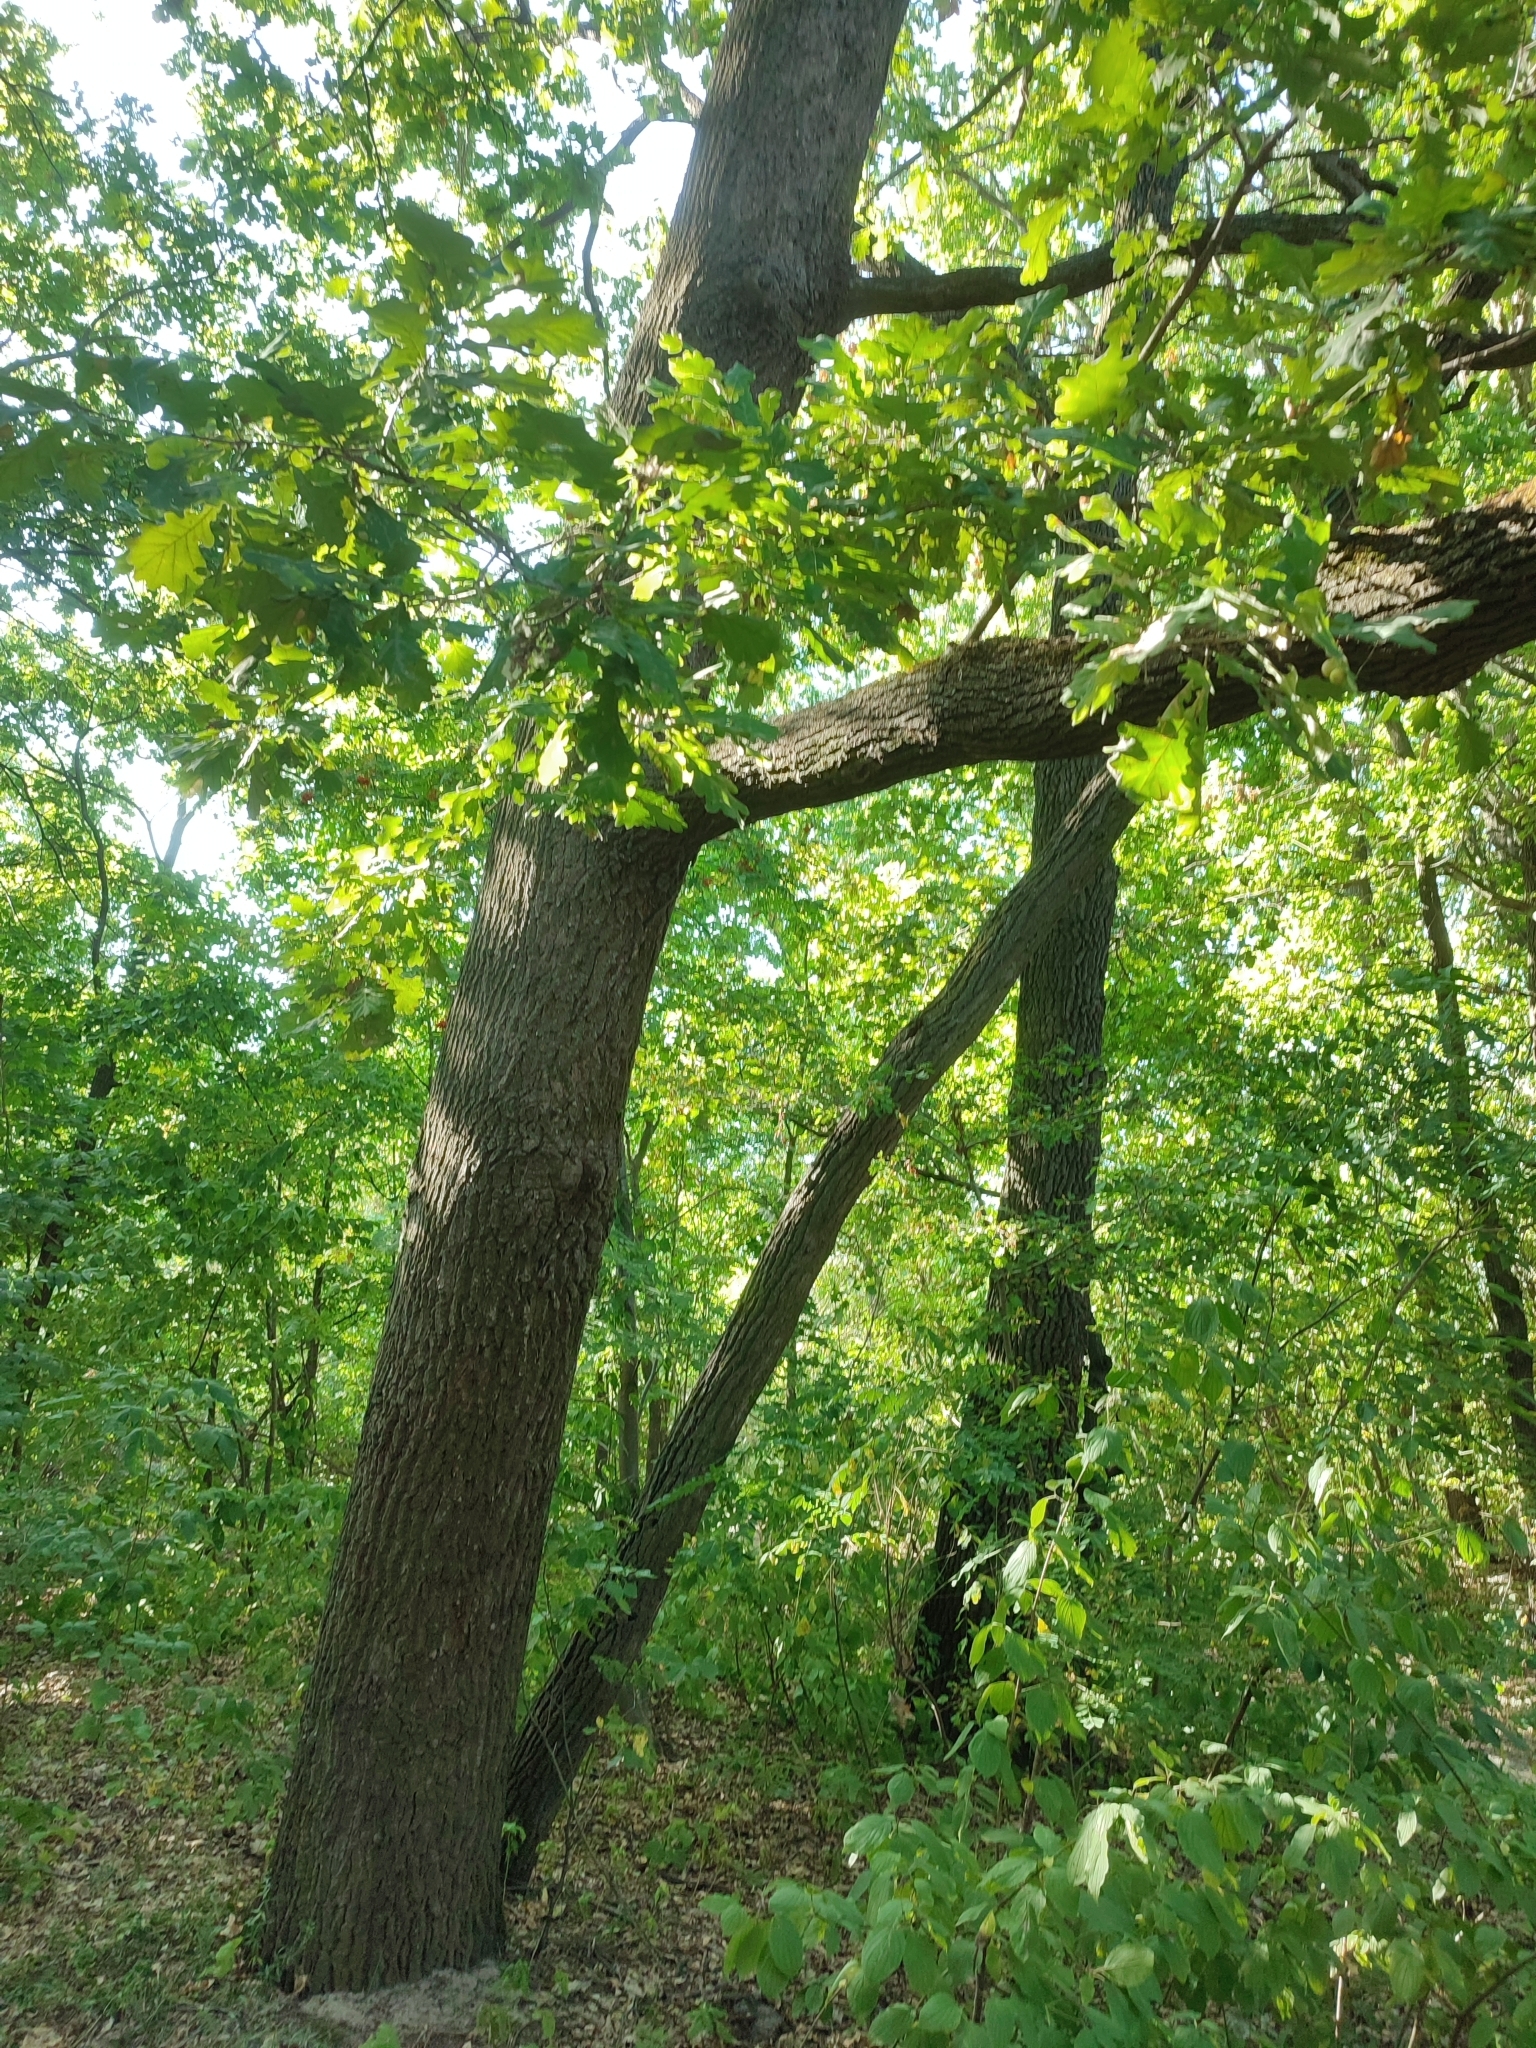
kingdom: Plantae
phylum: Tracheophyta
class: Magnoliopsida
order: Fagales
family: Fagaceae
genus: Quercus
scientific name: Quercus robur
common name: Pedunculate oak
